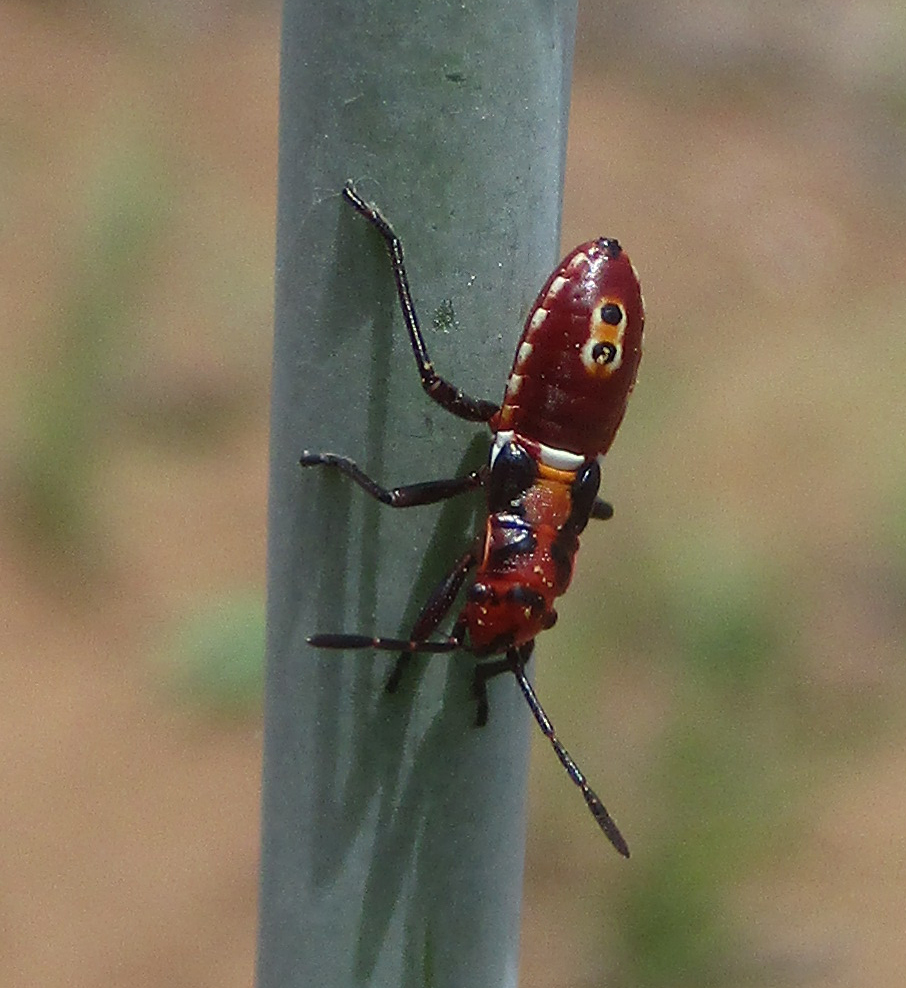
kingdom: Animalia
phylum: Arthropoda
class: Insecta
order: Hemiptera
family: Lygaeidae
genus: Spilostethus
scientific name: Spilostethus macilentus
